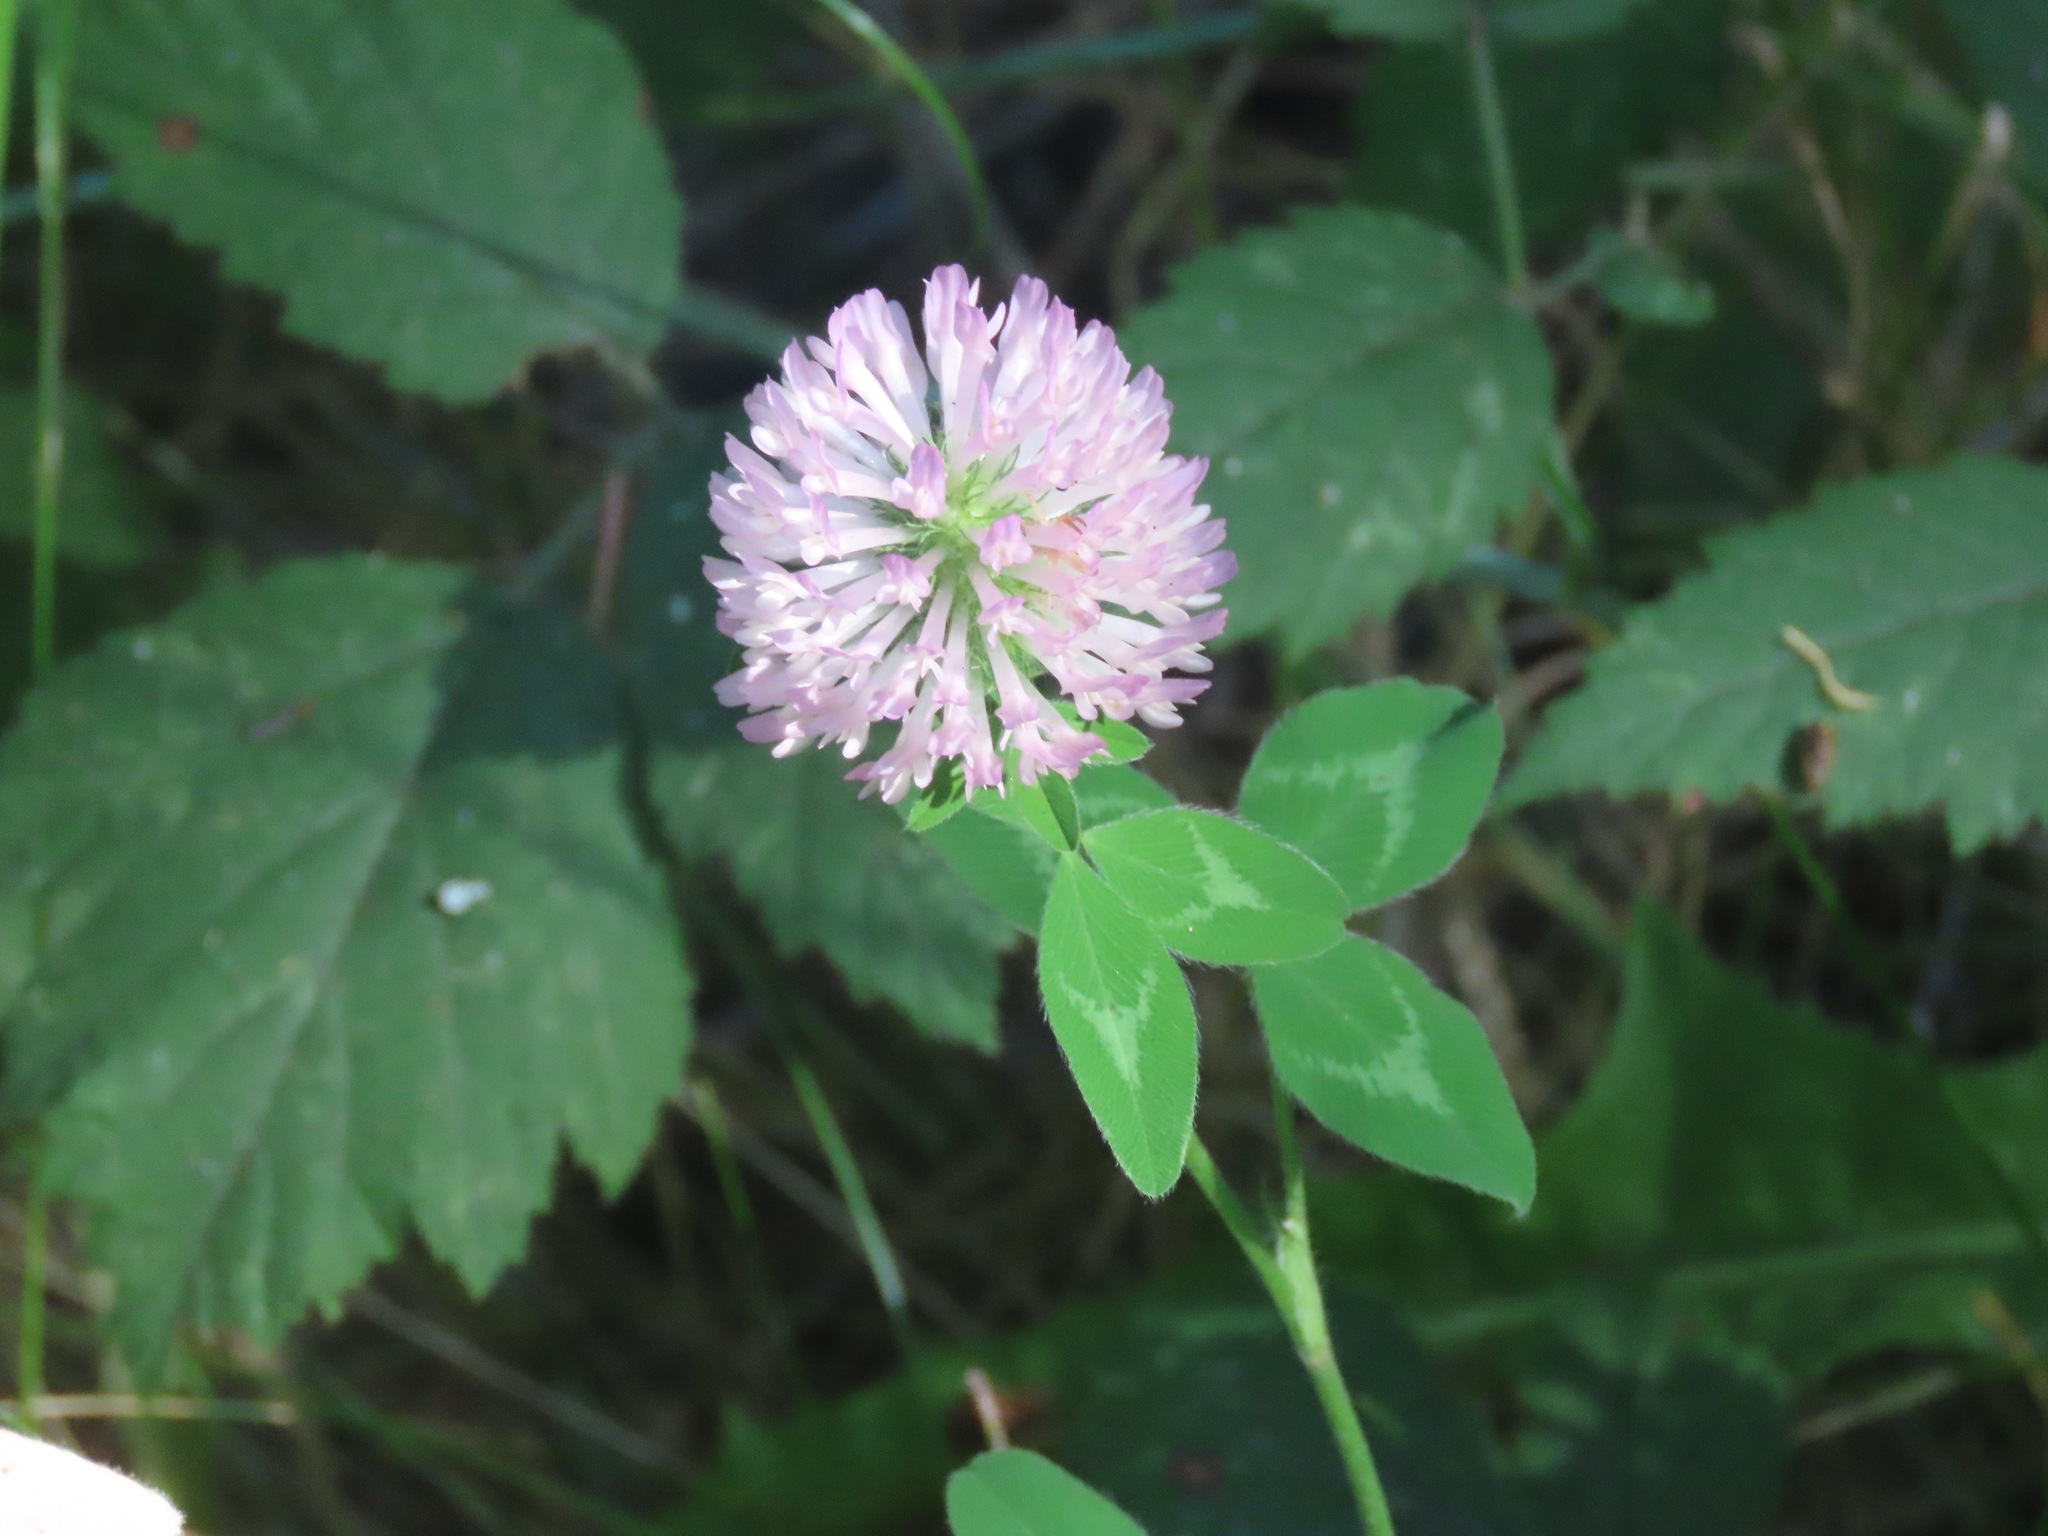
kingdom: Plantae
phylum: Tracheophyta
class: Magnoliopsida
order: Fabales
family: Fabaceae
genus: Trifolium
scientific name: Trifolium pratense
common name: Red clover
